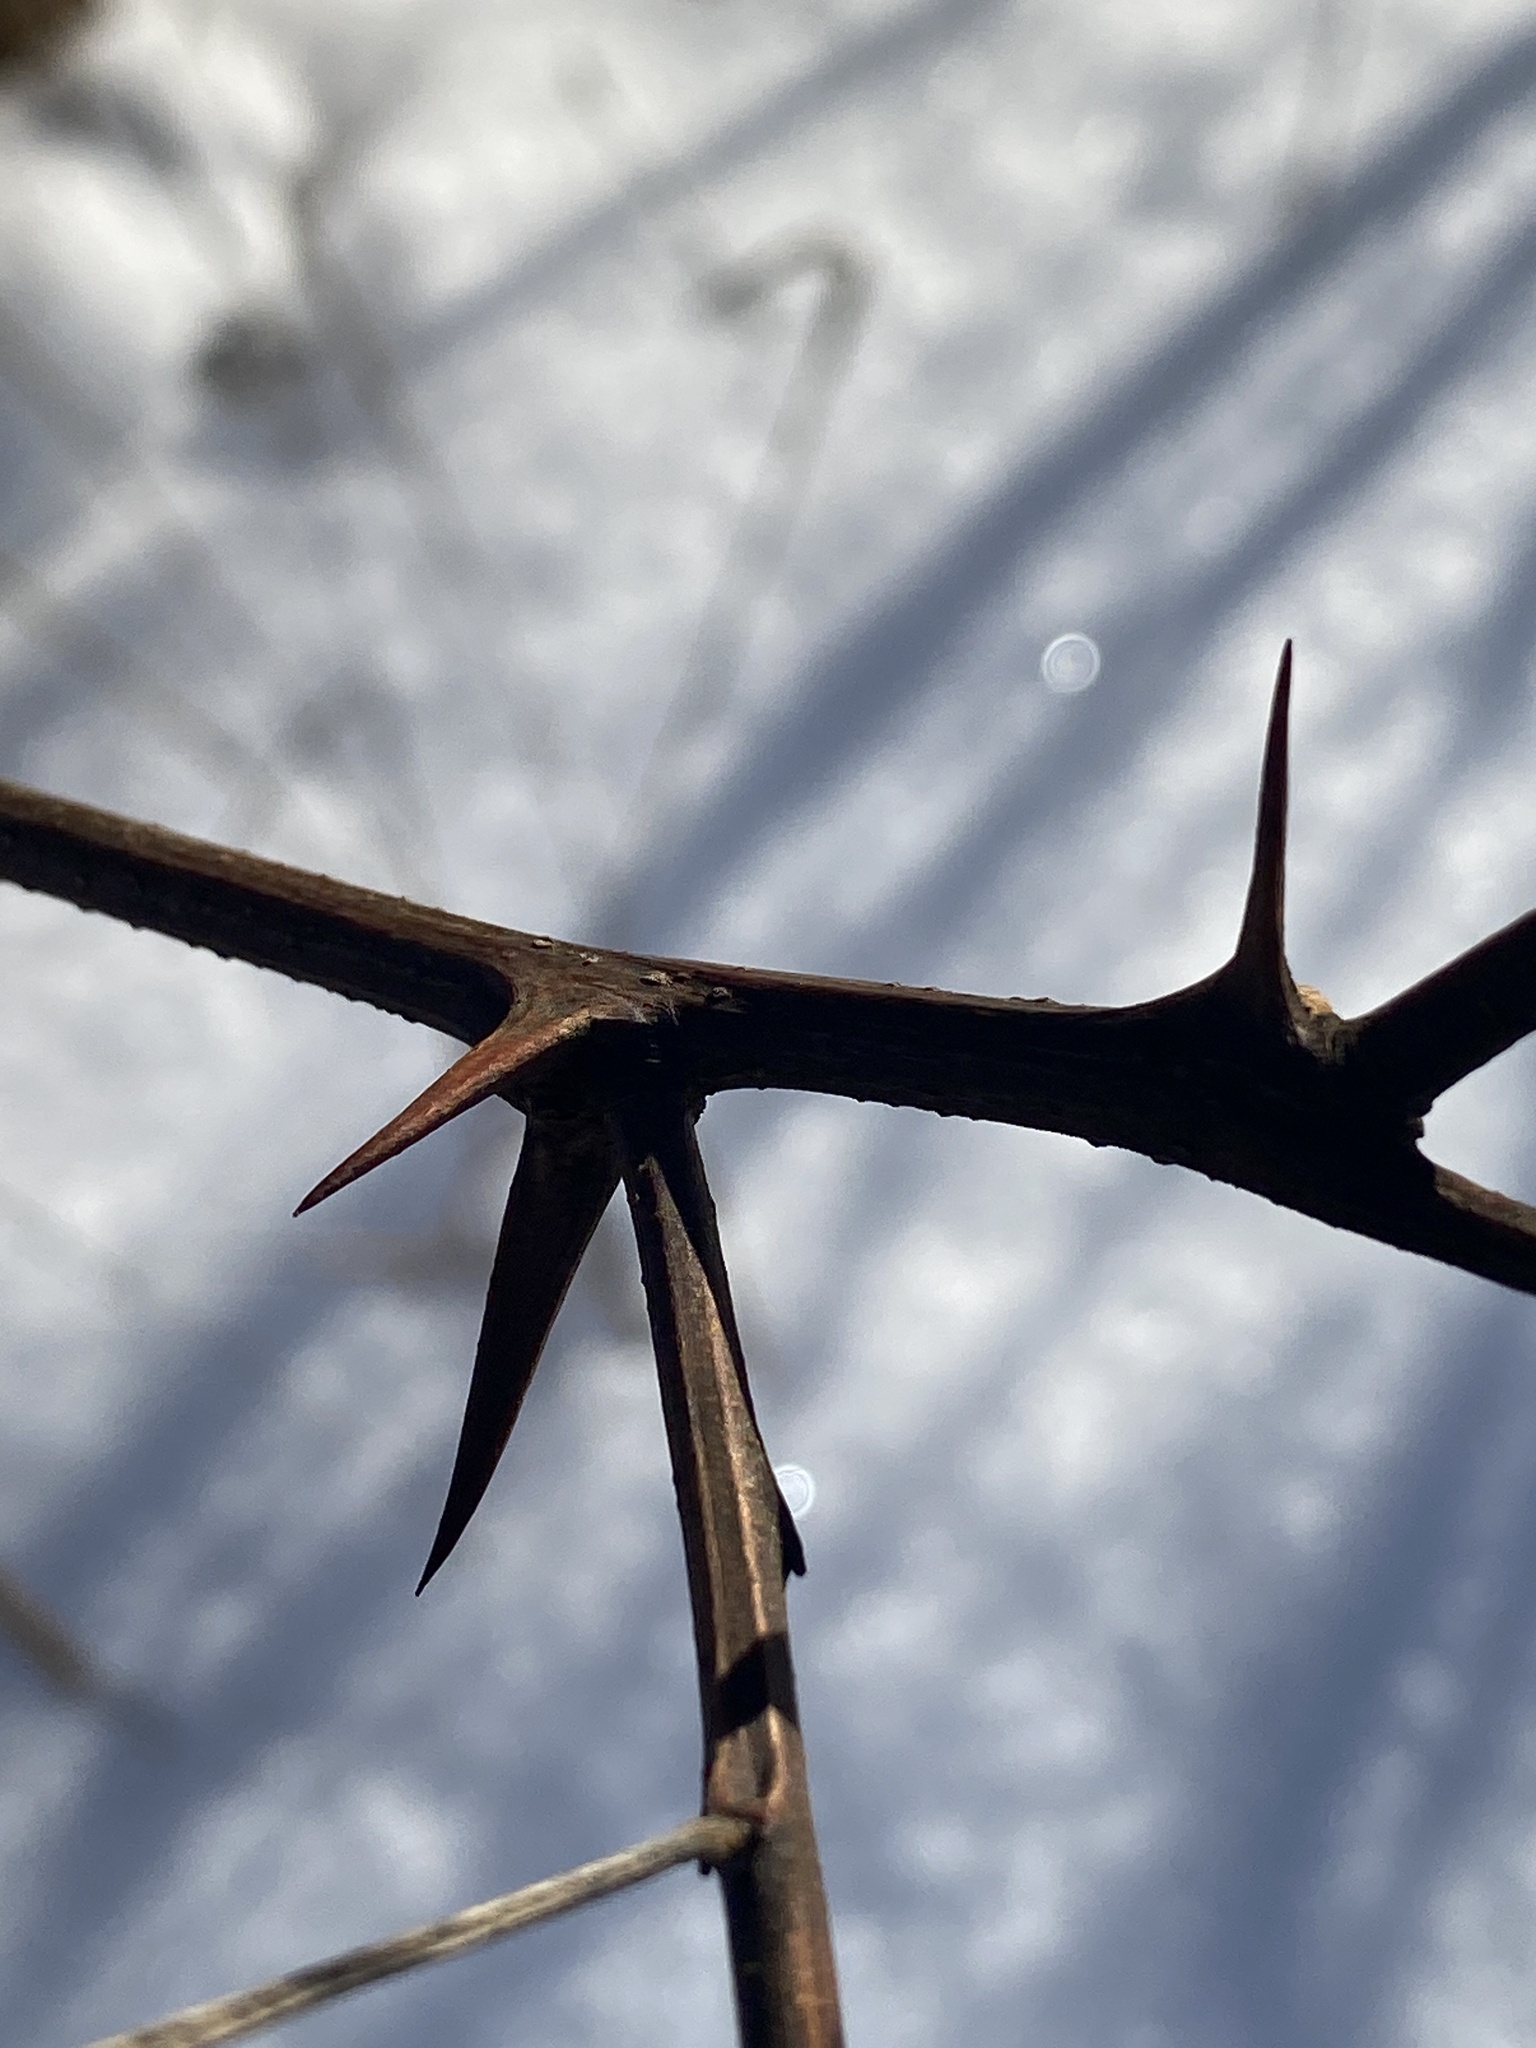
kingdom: Plantae
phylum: Tracheophyta
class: Magnoliopsida
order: Fabales
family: Fabaceae
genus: Robinia
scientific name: Robinia pseudoacacia
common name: Black locust
